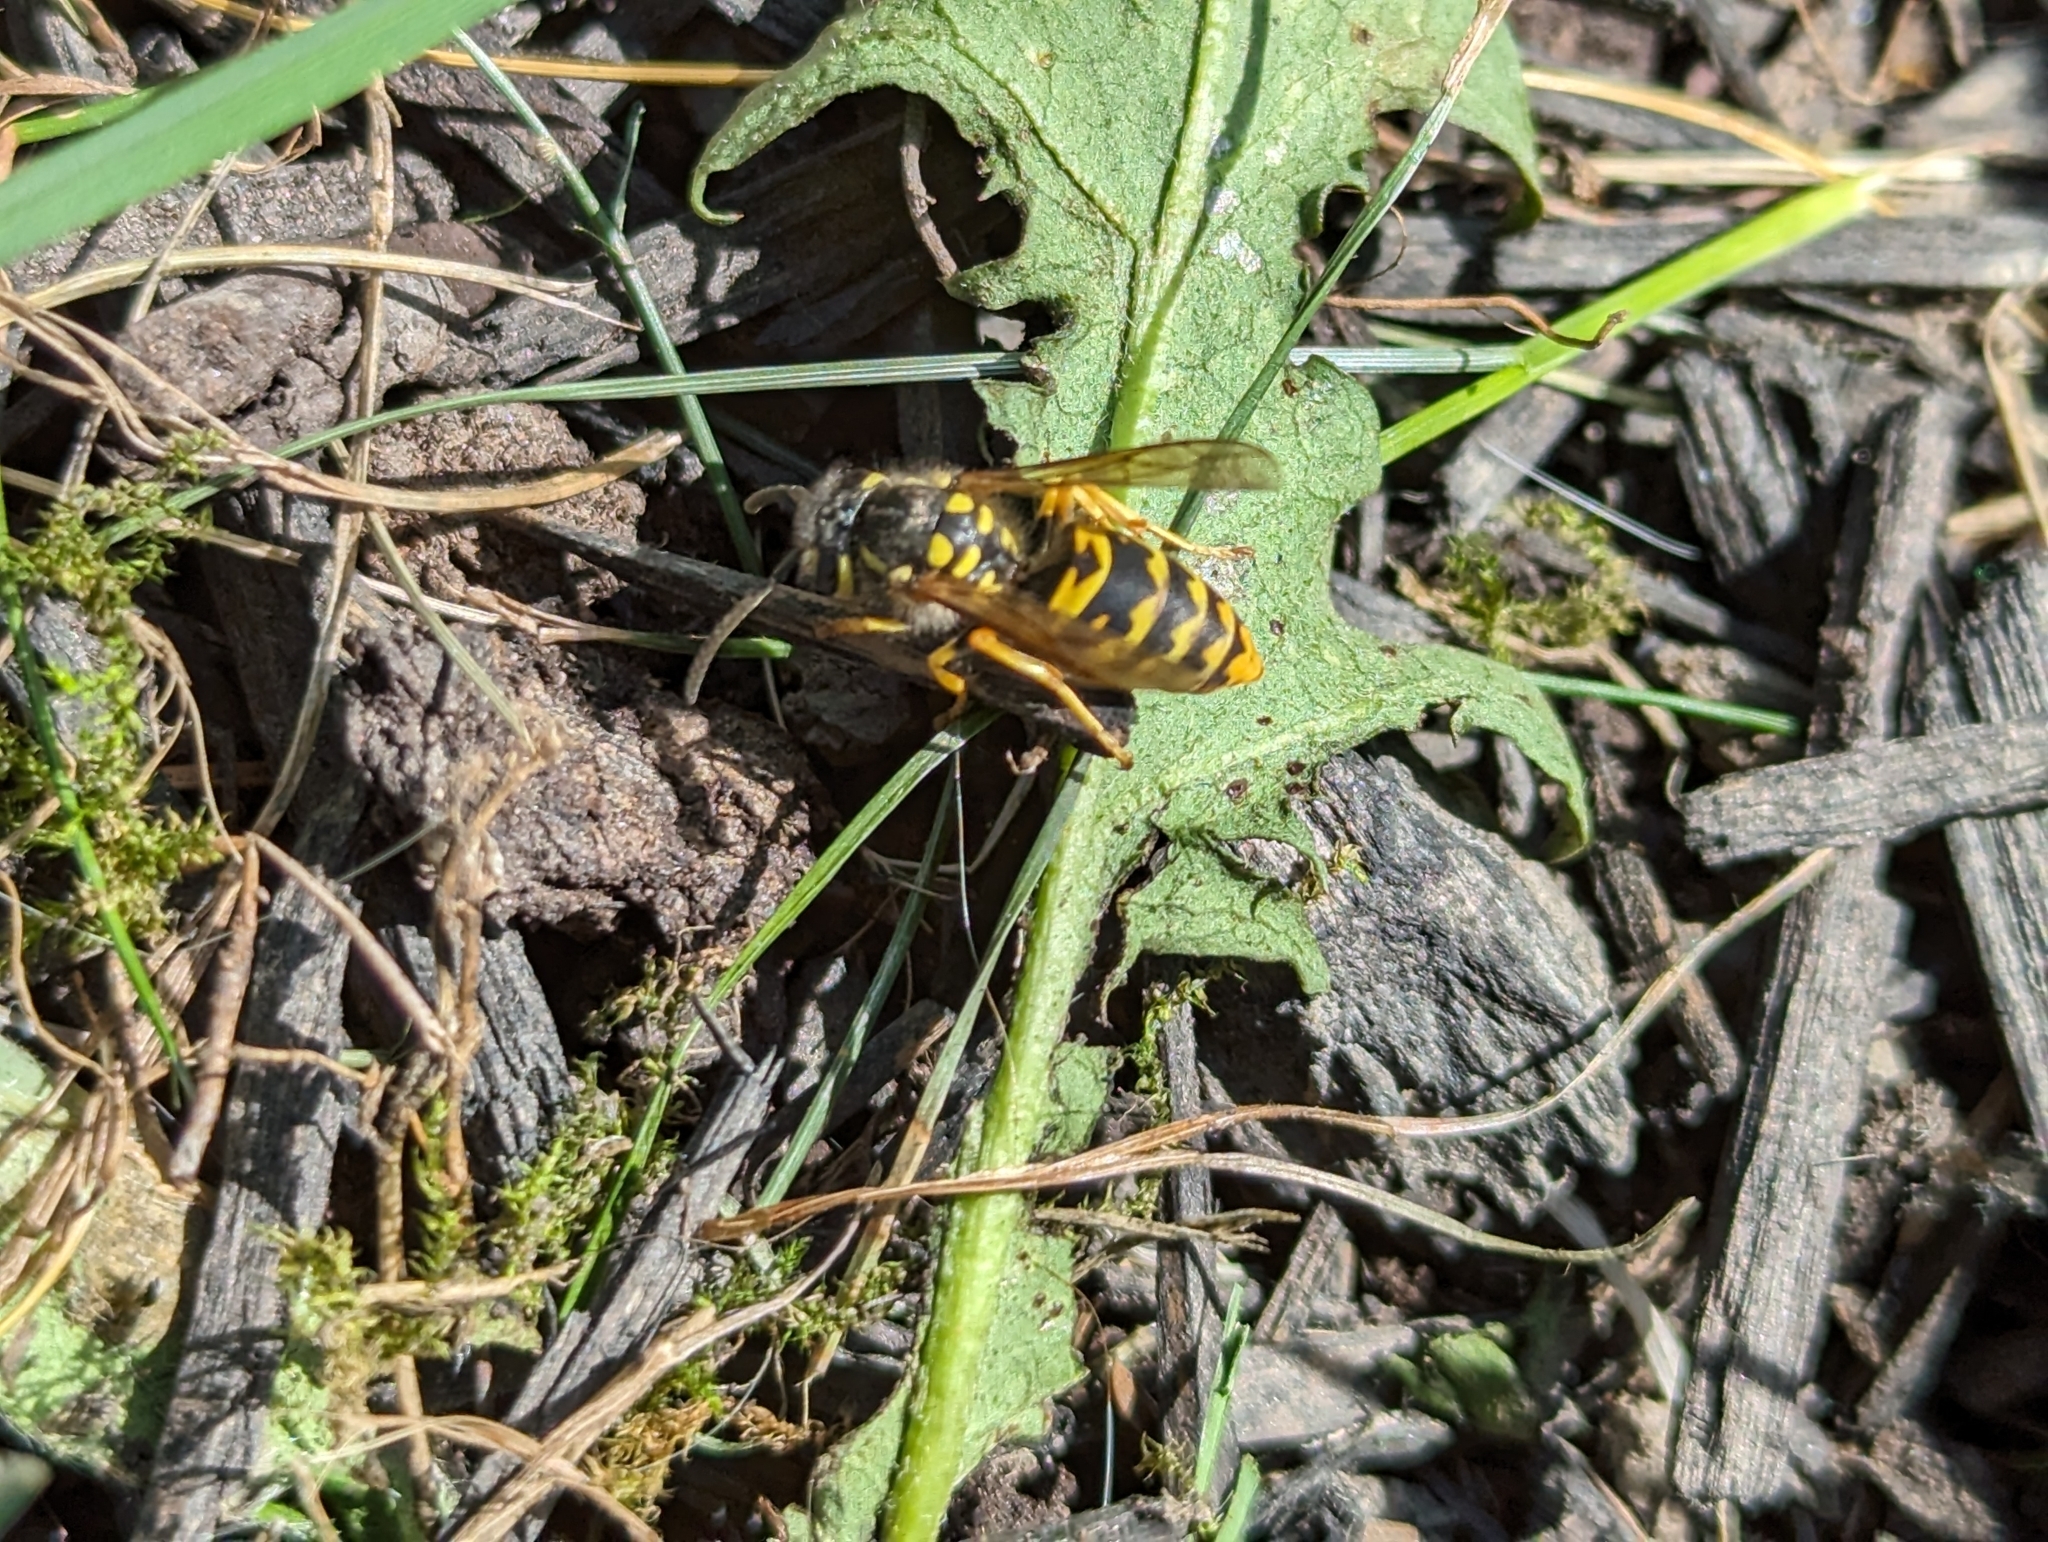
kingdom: Animalia
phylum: Arthropoda
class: Insecta
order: Hymenoptera
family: Vespidae
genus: Vespula
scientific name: Vespula germanica
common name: German wasp
